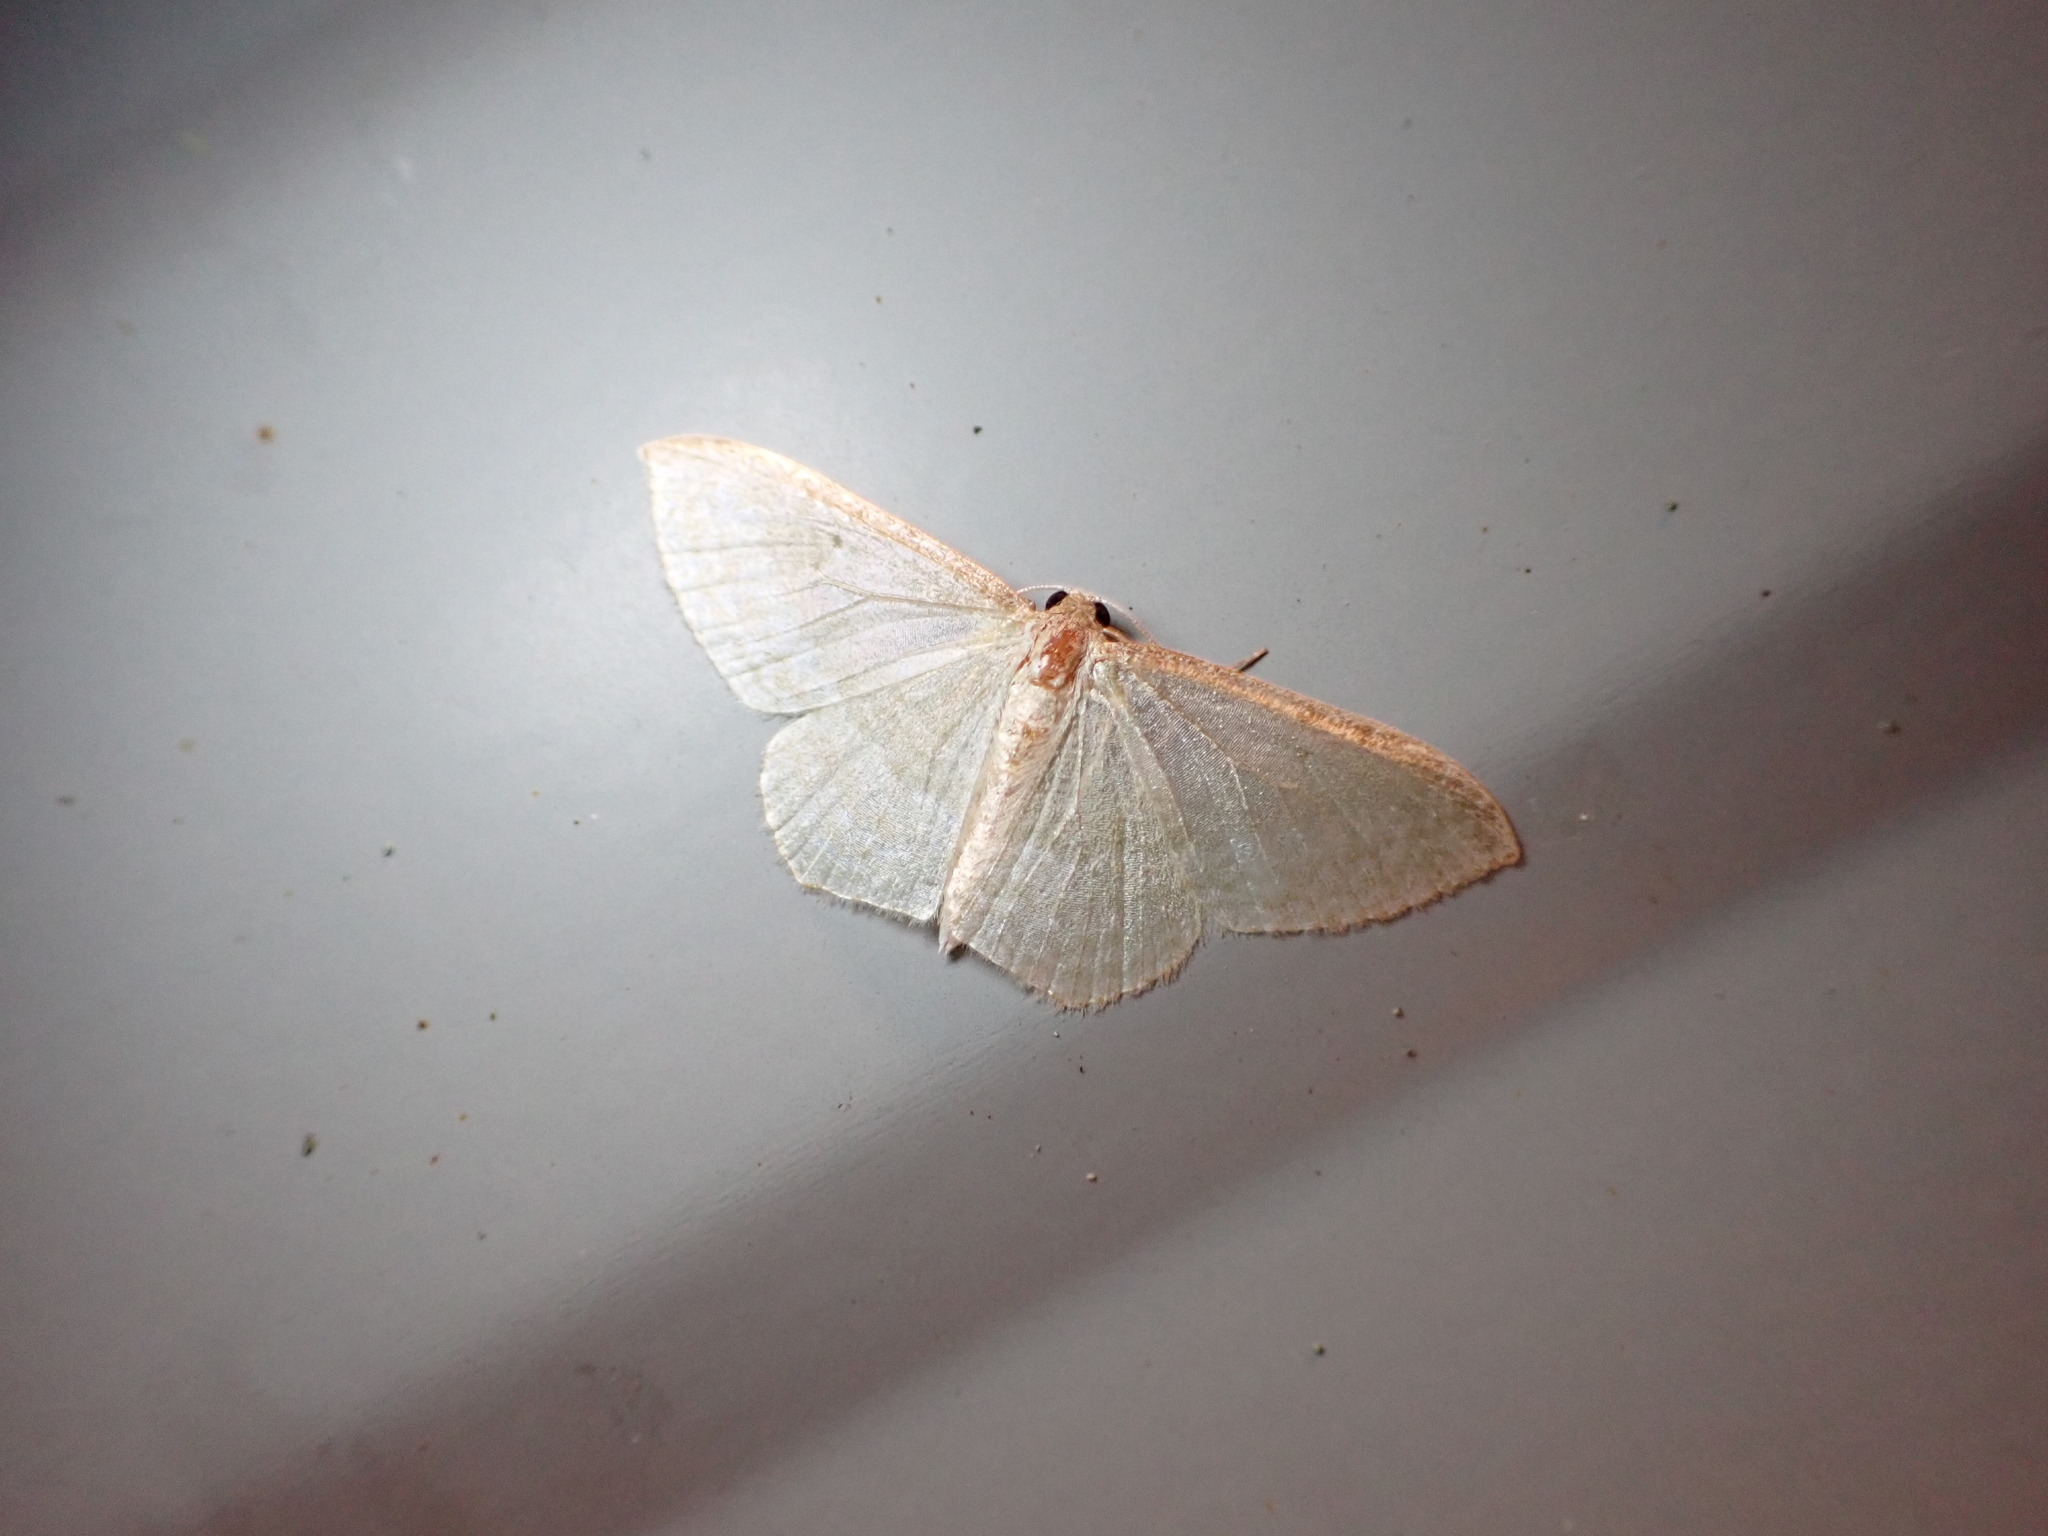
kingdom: Animalia
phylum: Arthropoda
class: Insecta
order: Lepidoptera
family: Geometridae
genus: Poecilasthena
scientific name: Poecilasthena pulchraria
